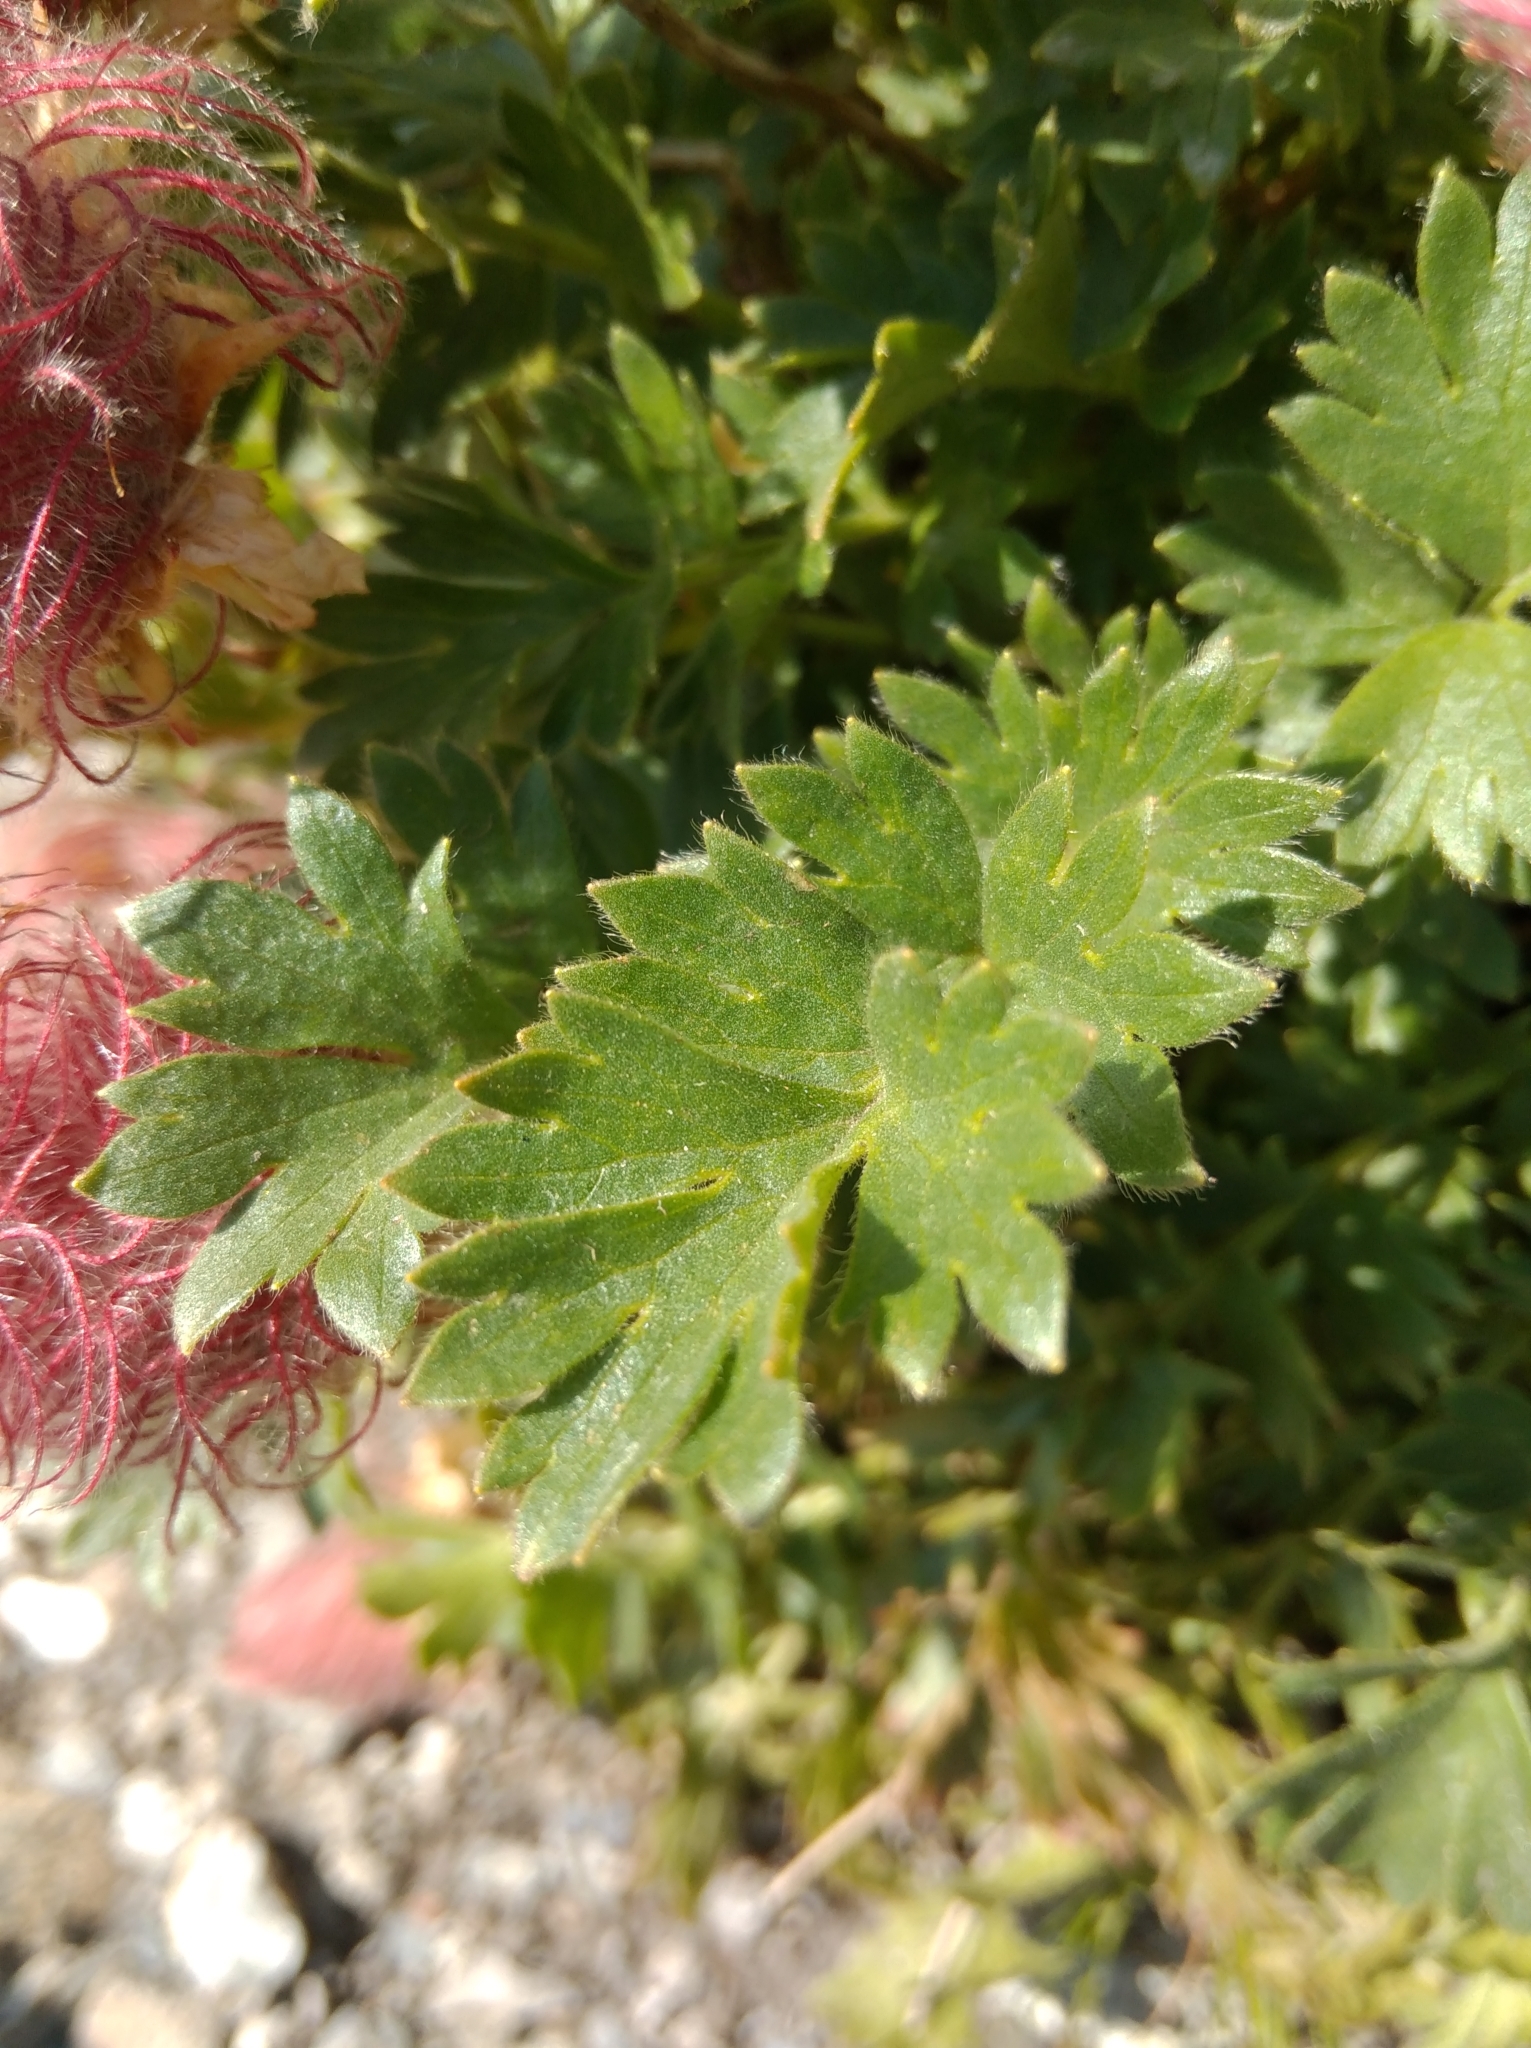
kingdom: Plantae
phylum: Tracheophyta
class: Magnoliopsida
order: Rosales
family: Rosaceae
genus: Geum
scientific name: Geum reptans
